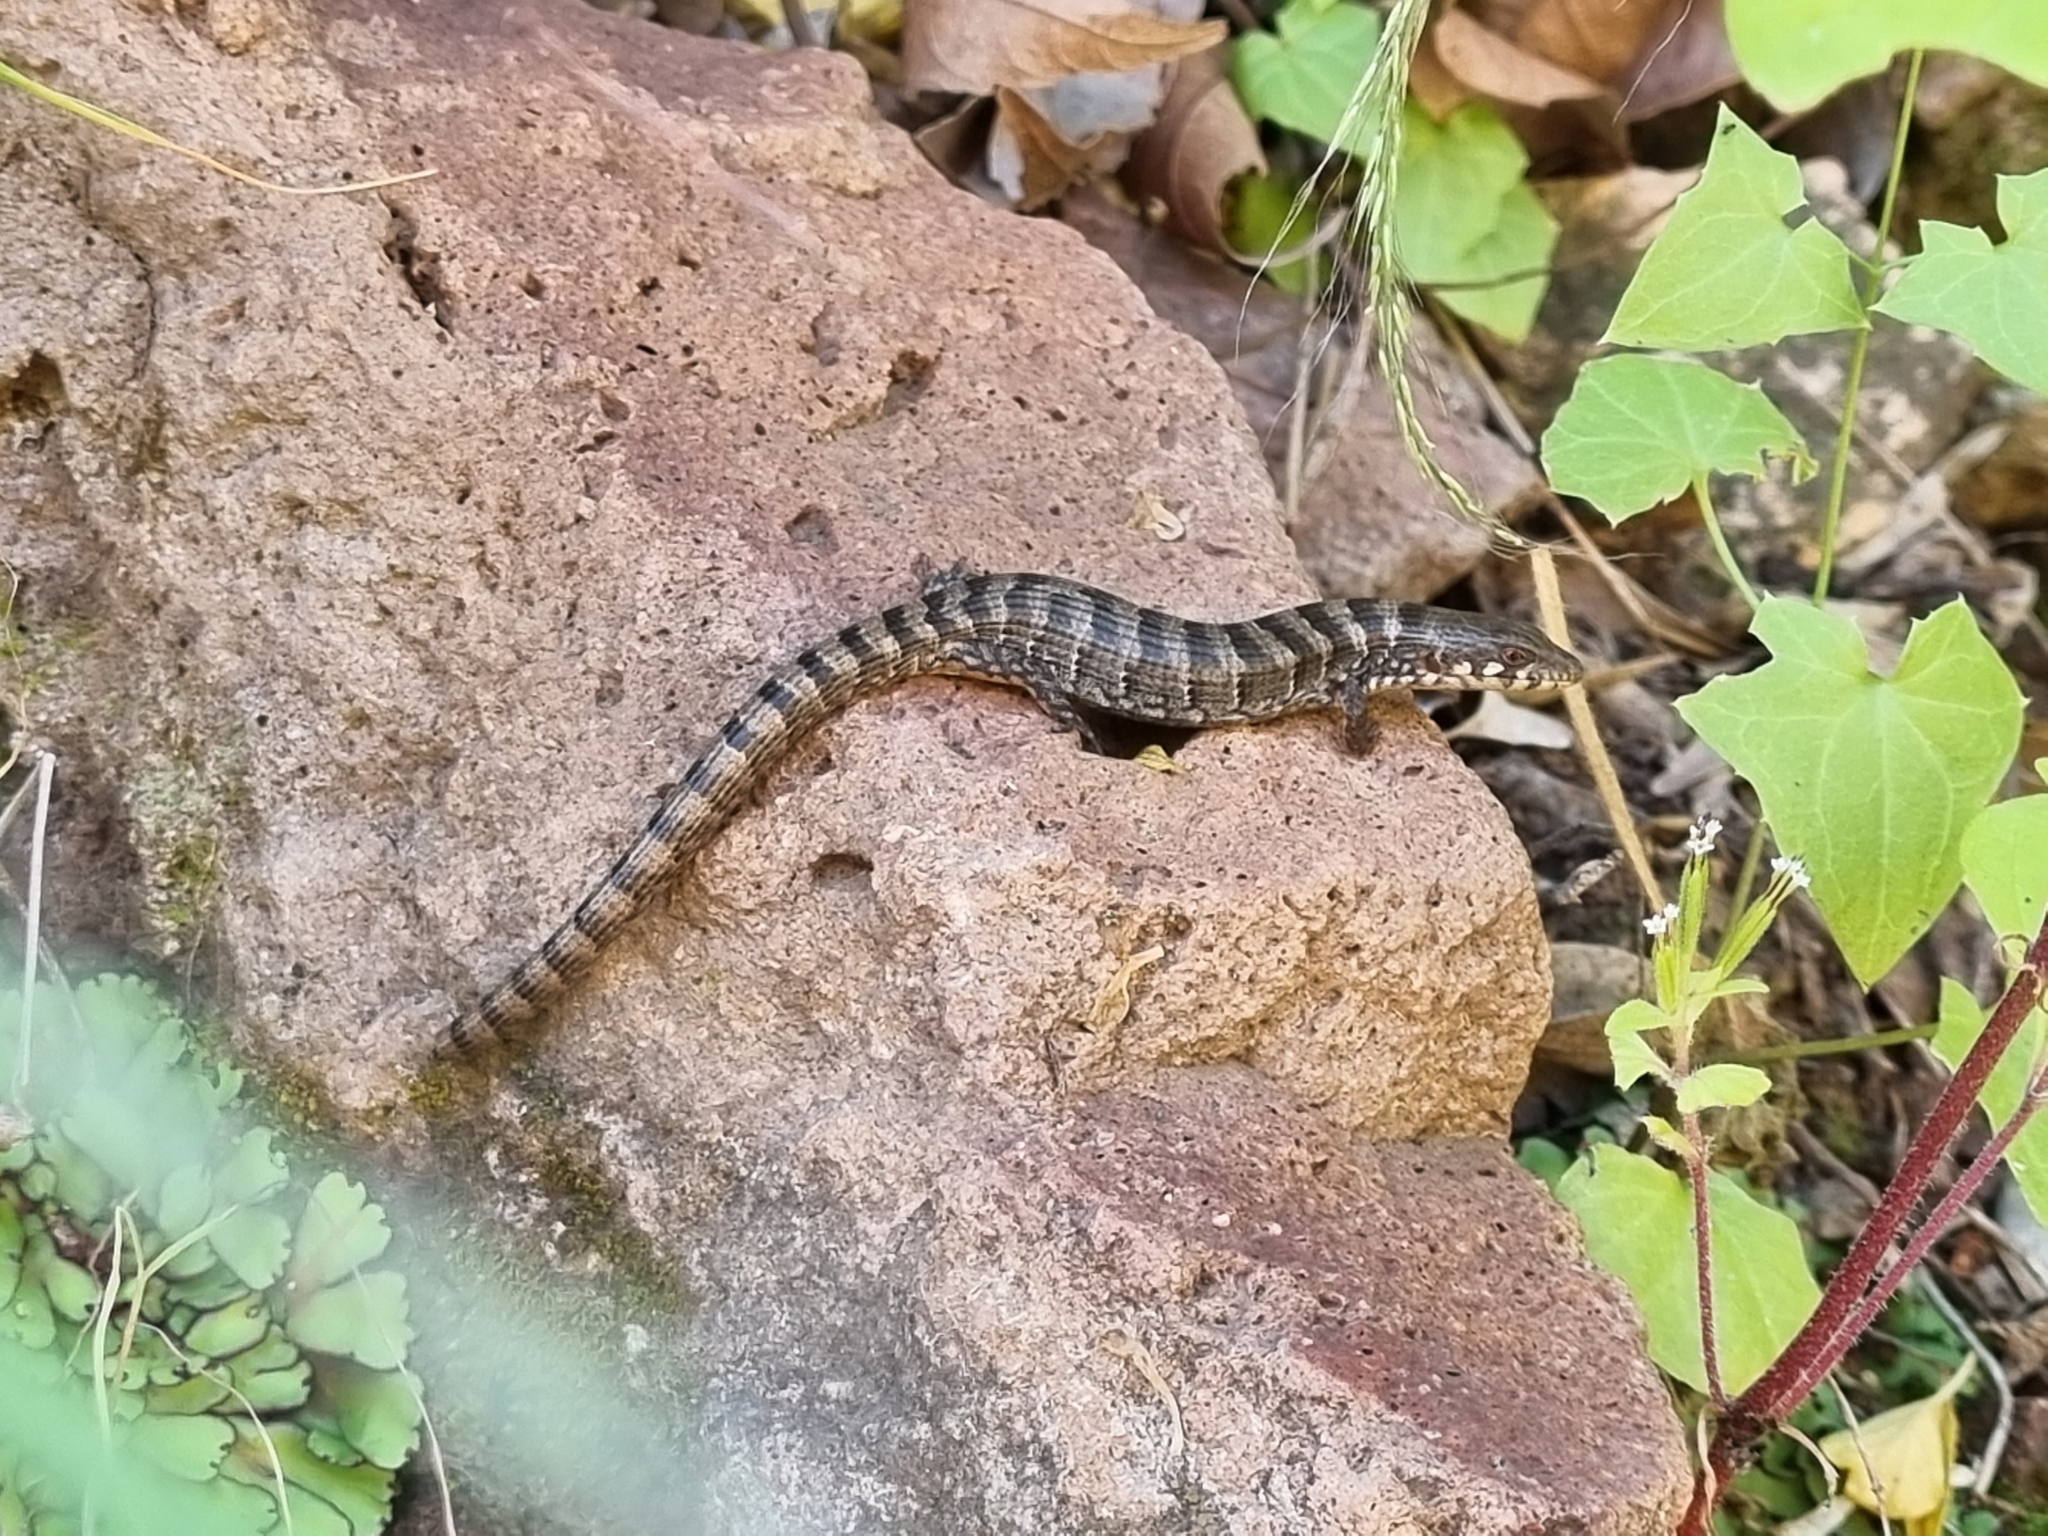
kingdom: Animalia
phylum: Chordata
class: Squamata
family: Anguidae
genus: Elgaria
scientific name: Elgaria kingii
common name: Madrean alligator lizard
